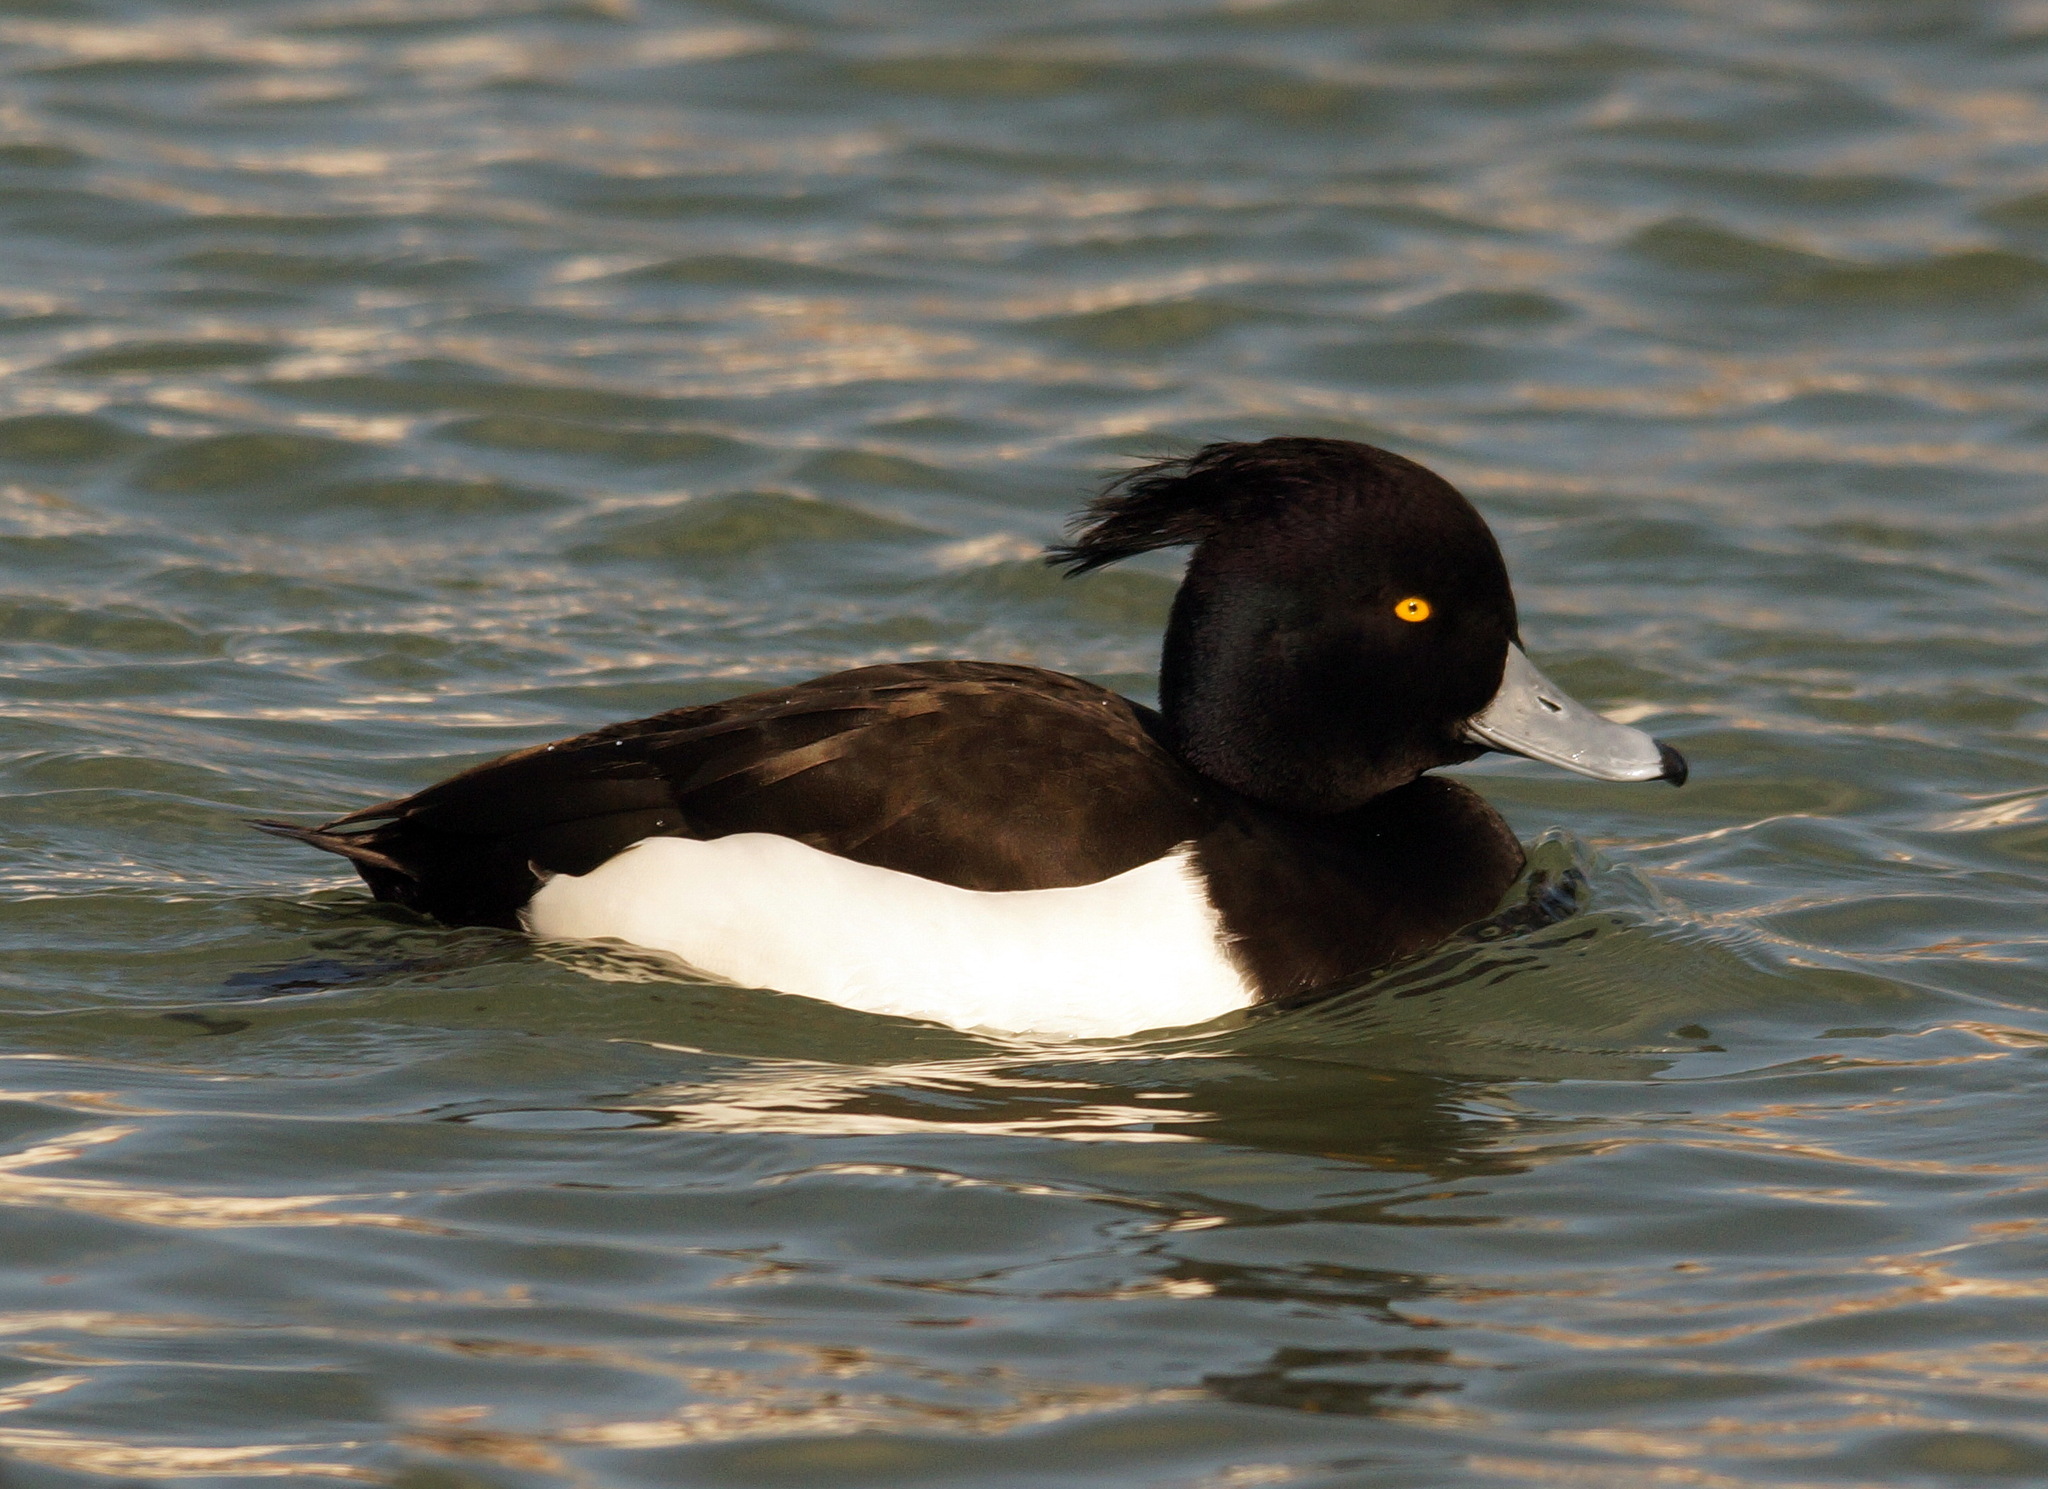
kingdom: Animalia
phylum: Chordata
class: Aves
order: Anseriformes
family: Anatidae
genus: Aythya
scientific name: Aythya fuligula
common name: Tufted duck
